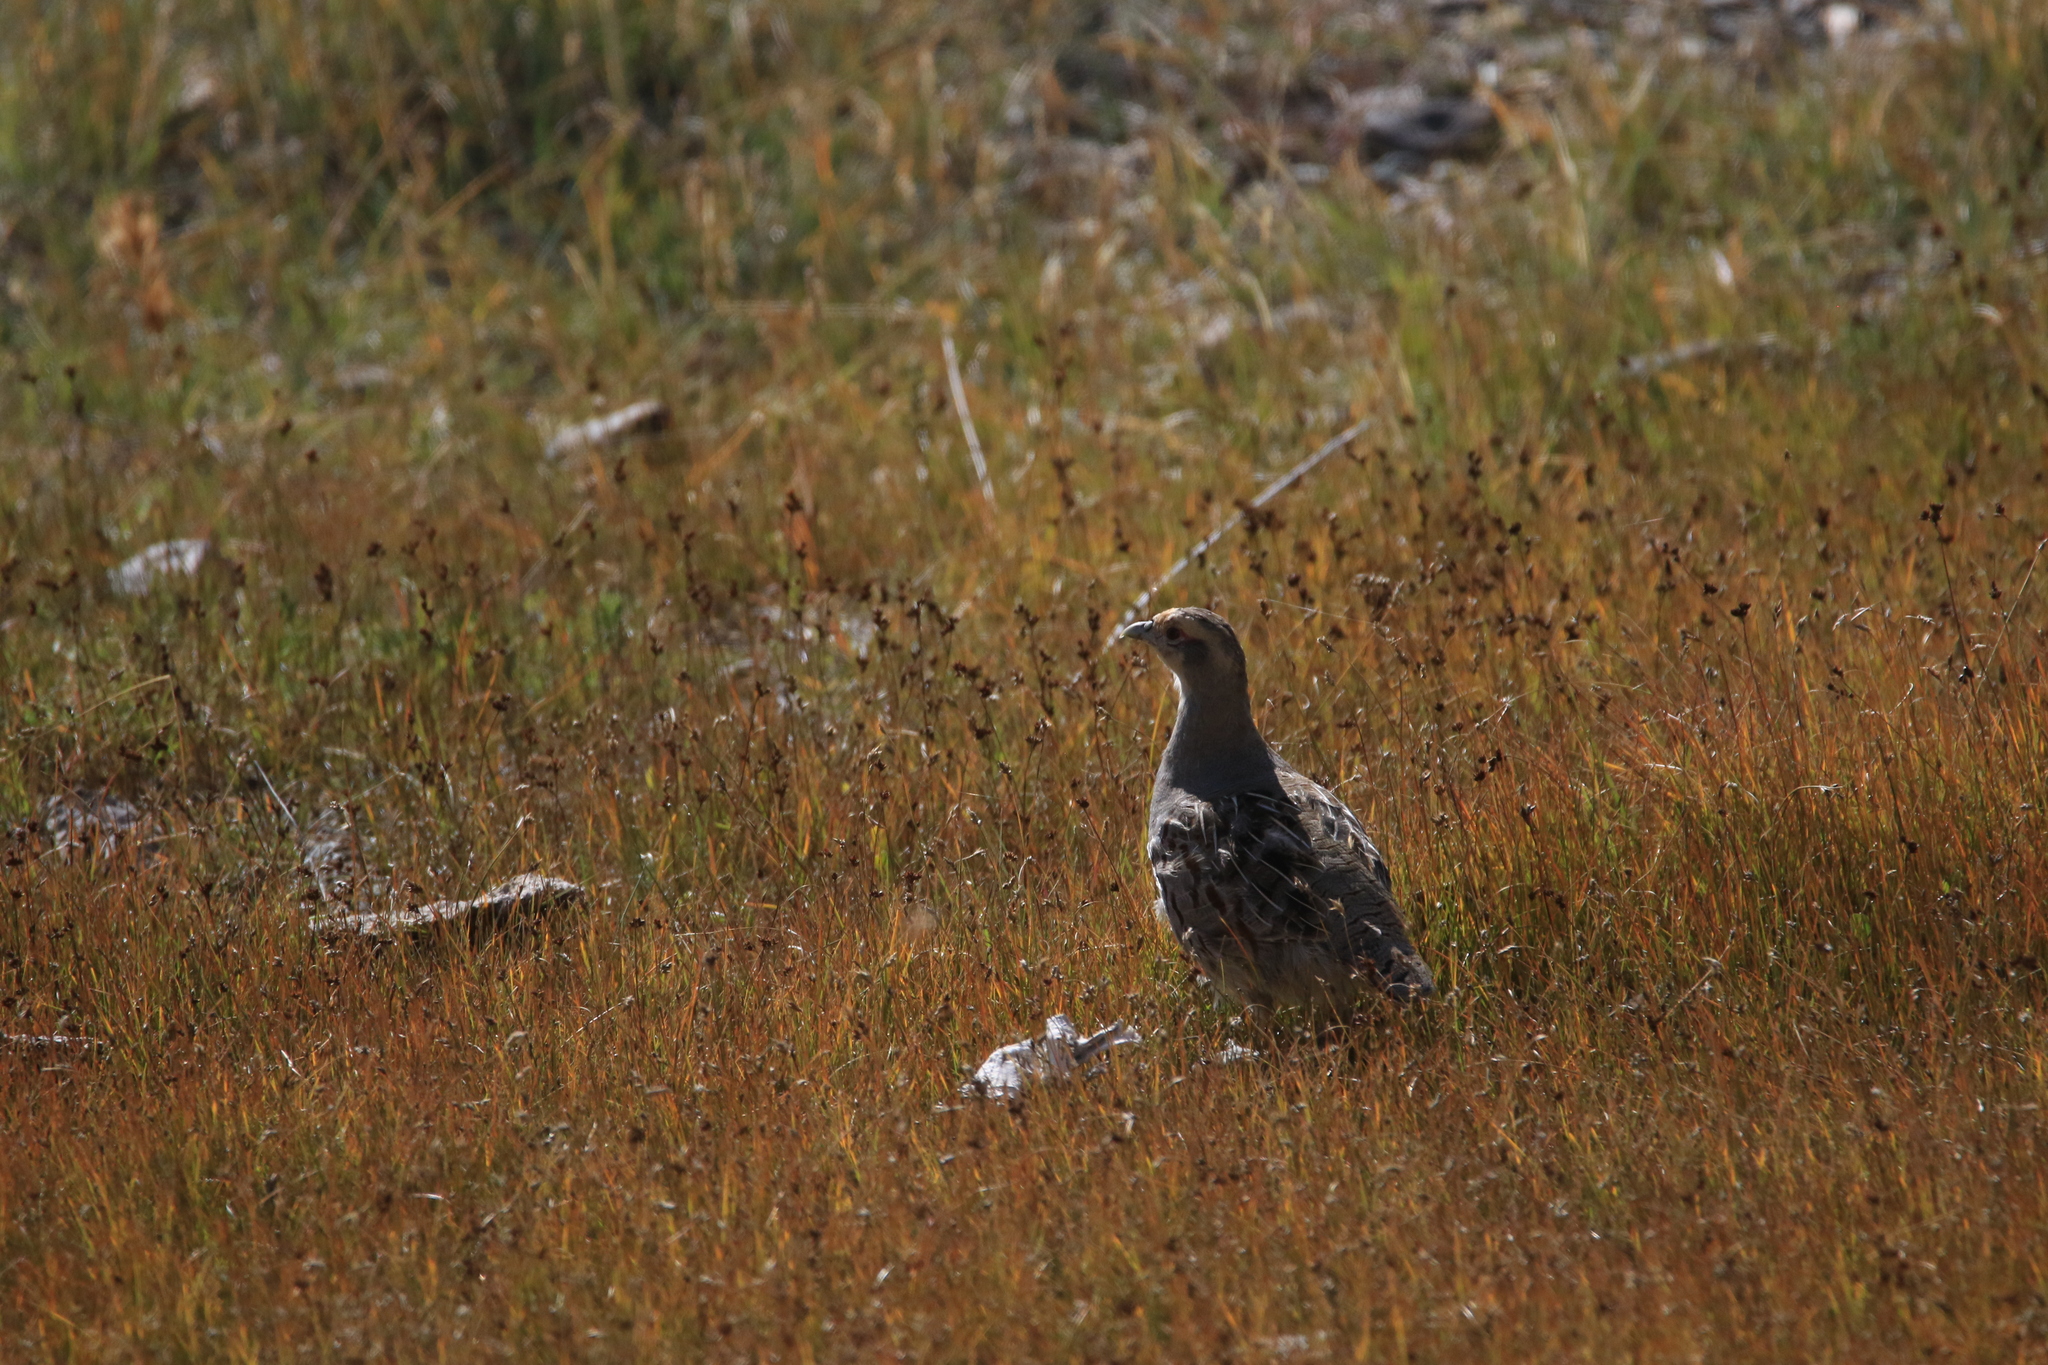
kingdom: Animalia
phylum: Chordata
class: Aves
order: Galliformes
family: Phasianidae
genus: Perdix
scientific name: Perdix dauurica
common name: Daurian partridge
